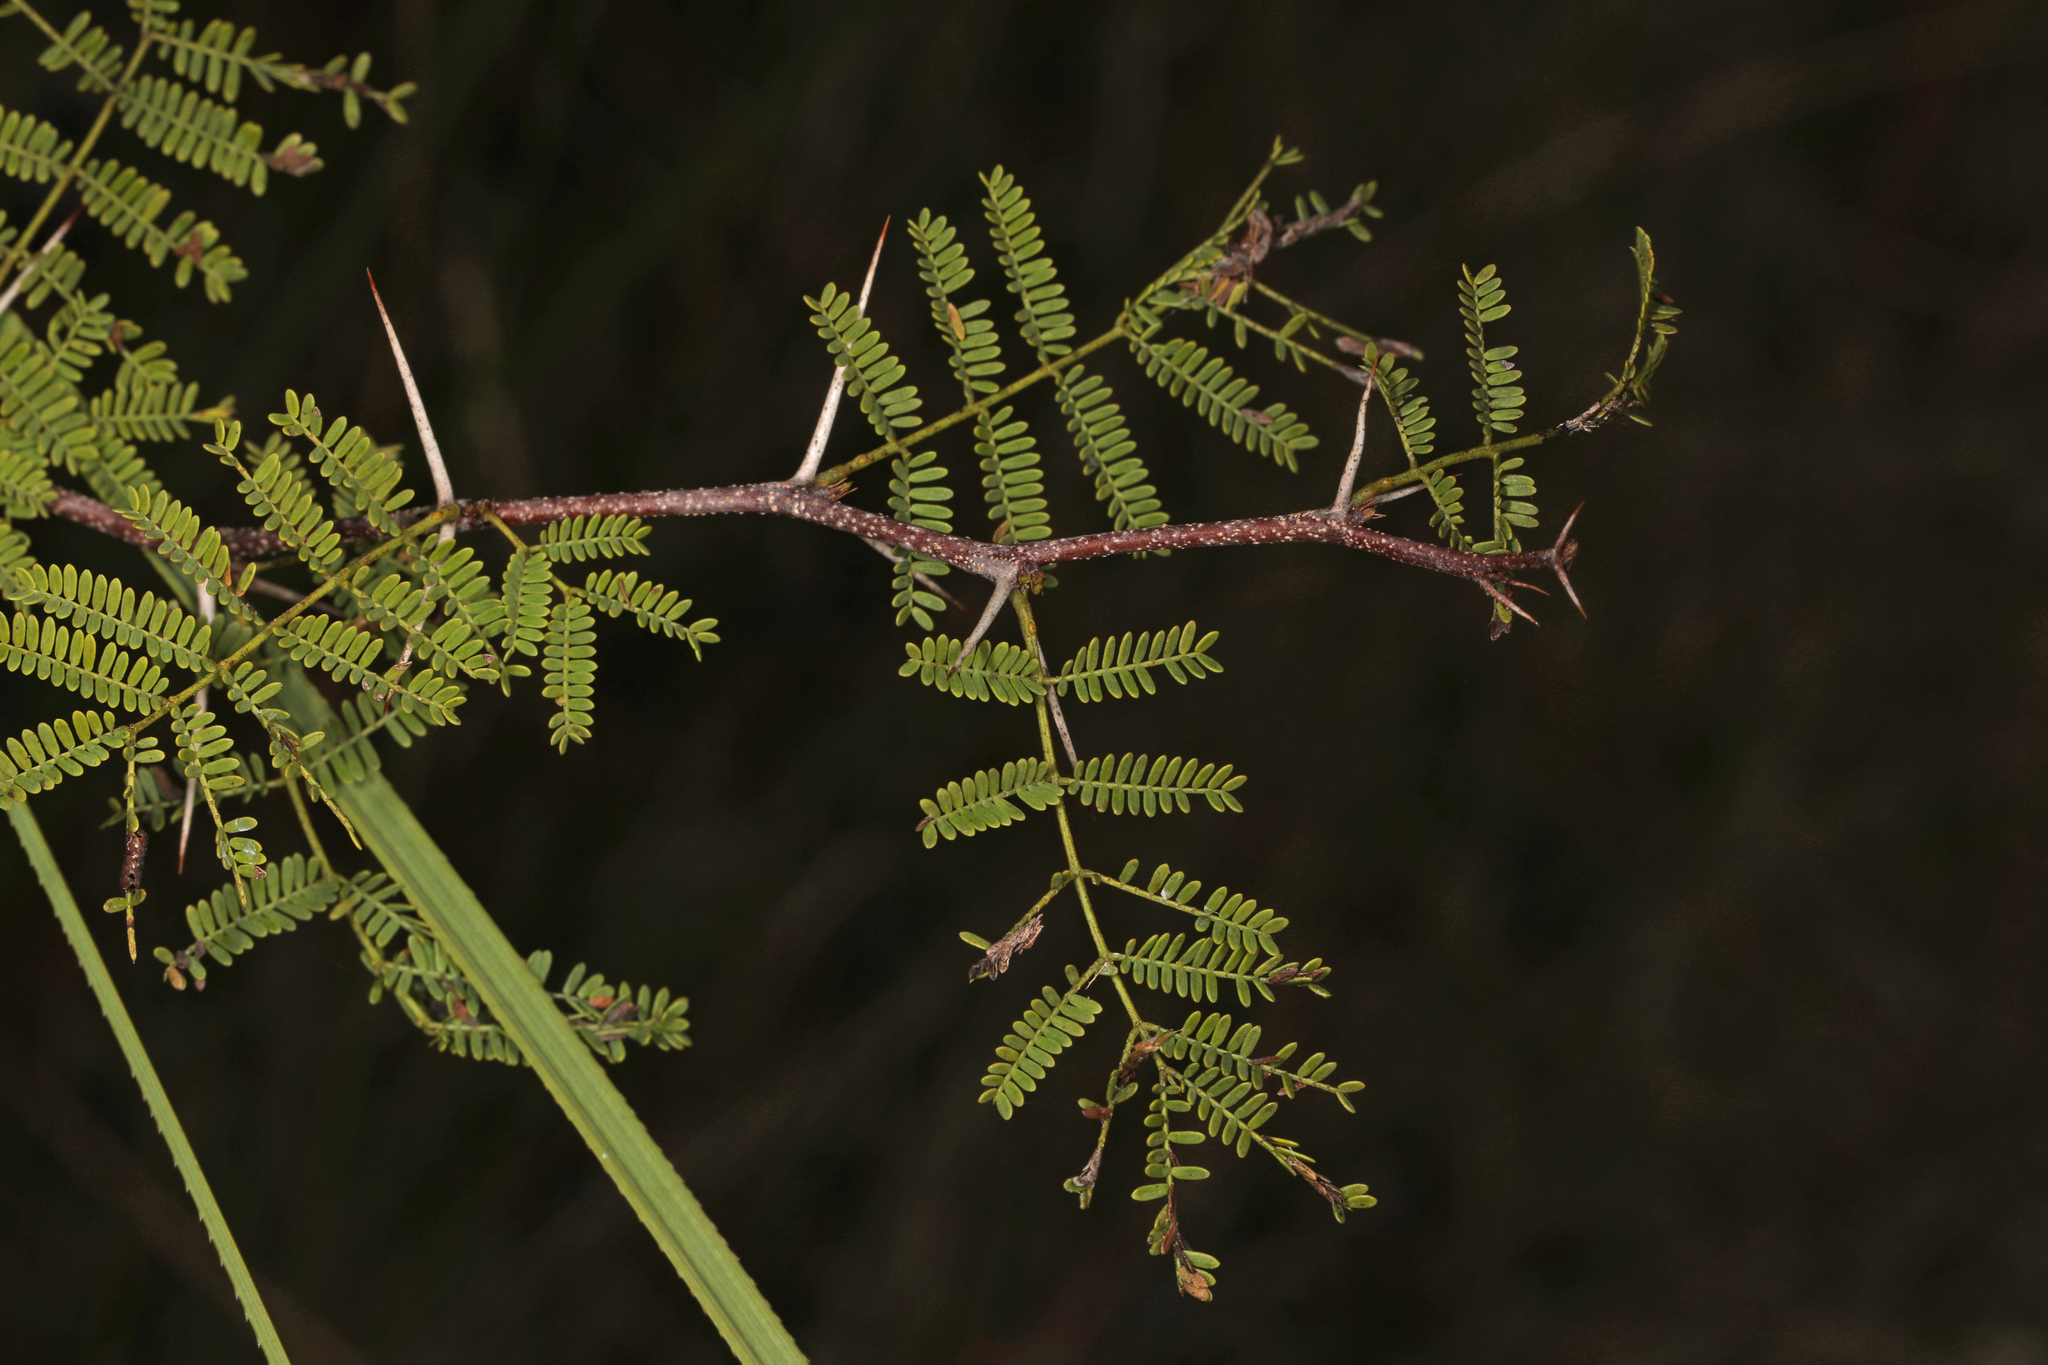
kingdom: Plantae
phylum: Tracheophyta
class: Magnoliopsida
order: Fabales
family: Fabaceae
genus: Vachellia
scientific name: Vachellia farnesiana
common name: Sweet acacia
